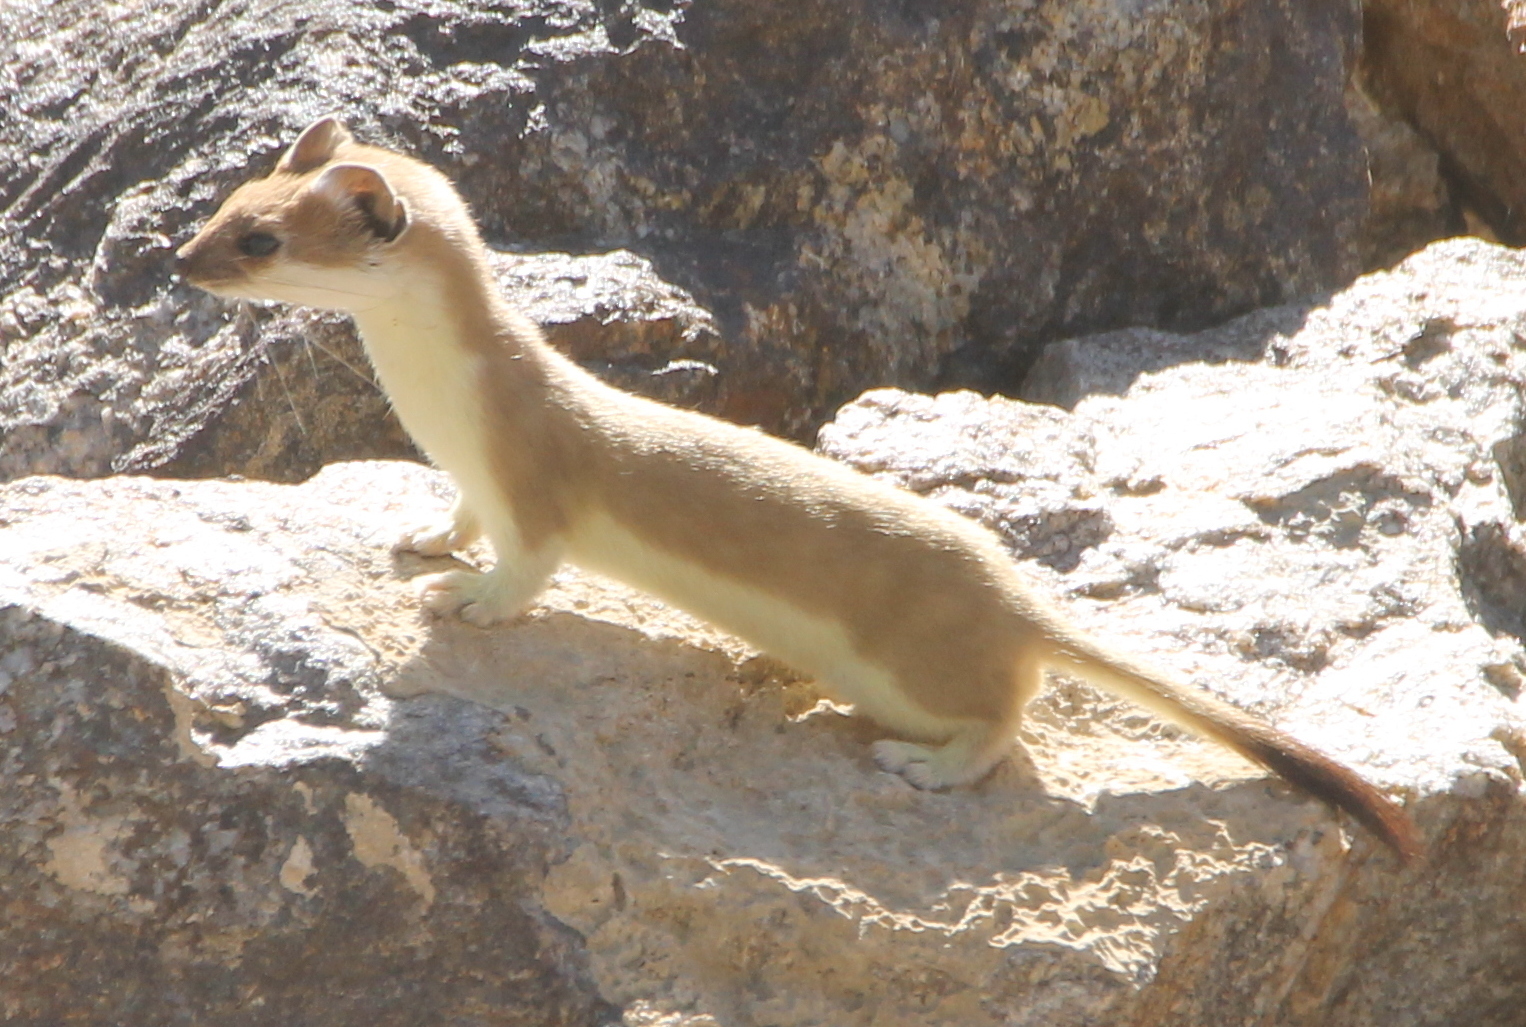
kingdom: Animalia
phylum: Chordata
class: Mammalia
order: Carnivora
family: Mustelidae
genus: Mustela
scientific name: Mustela erminea
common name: Stoat
